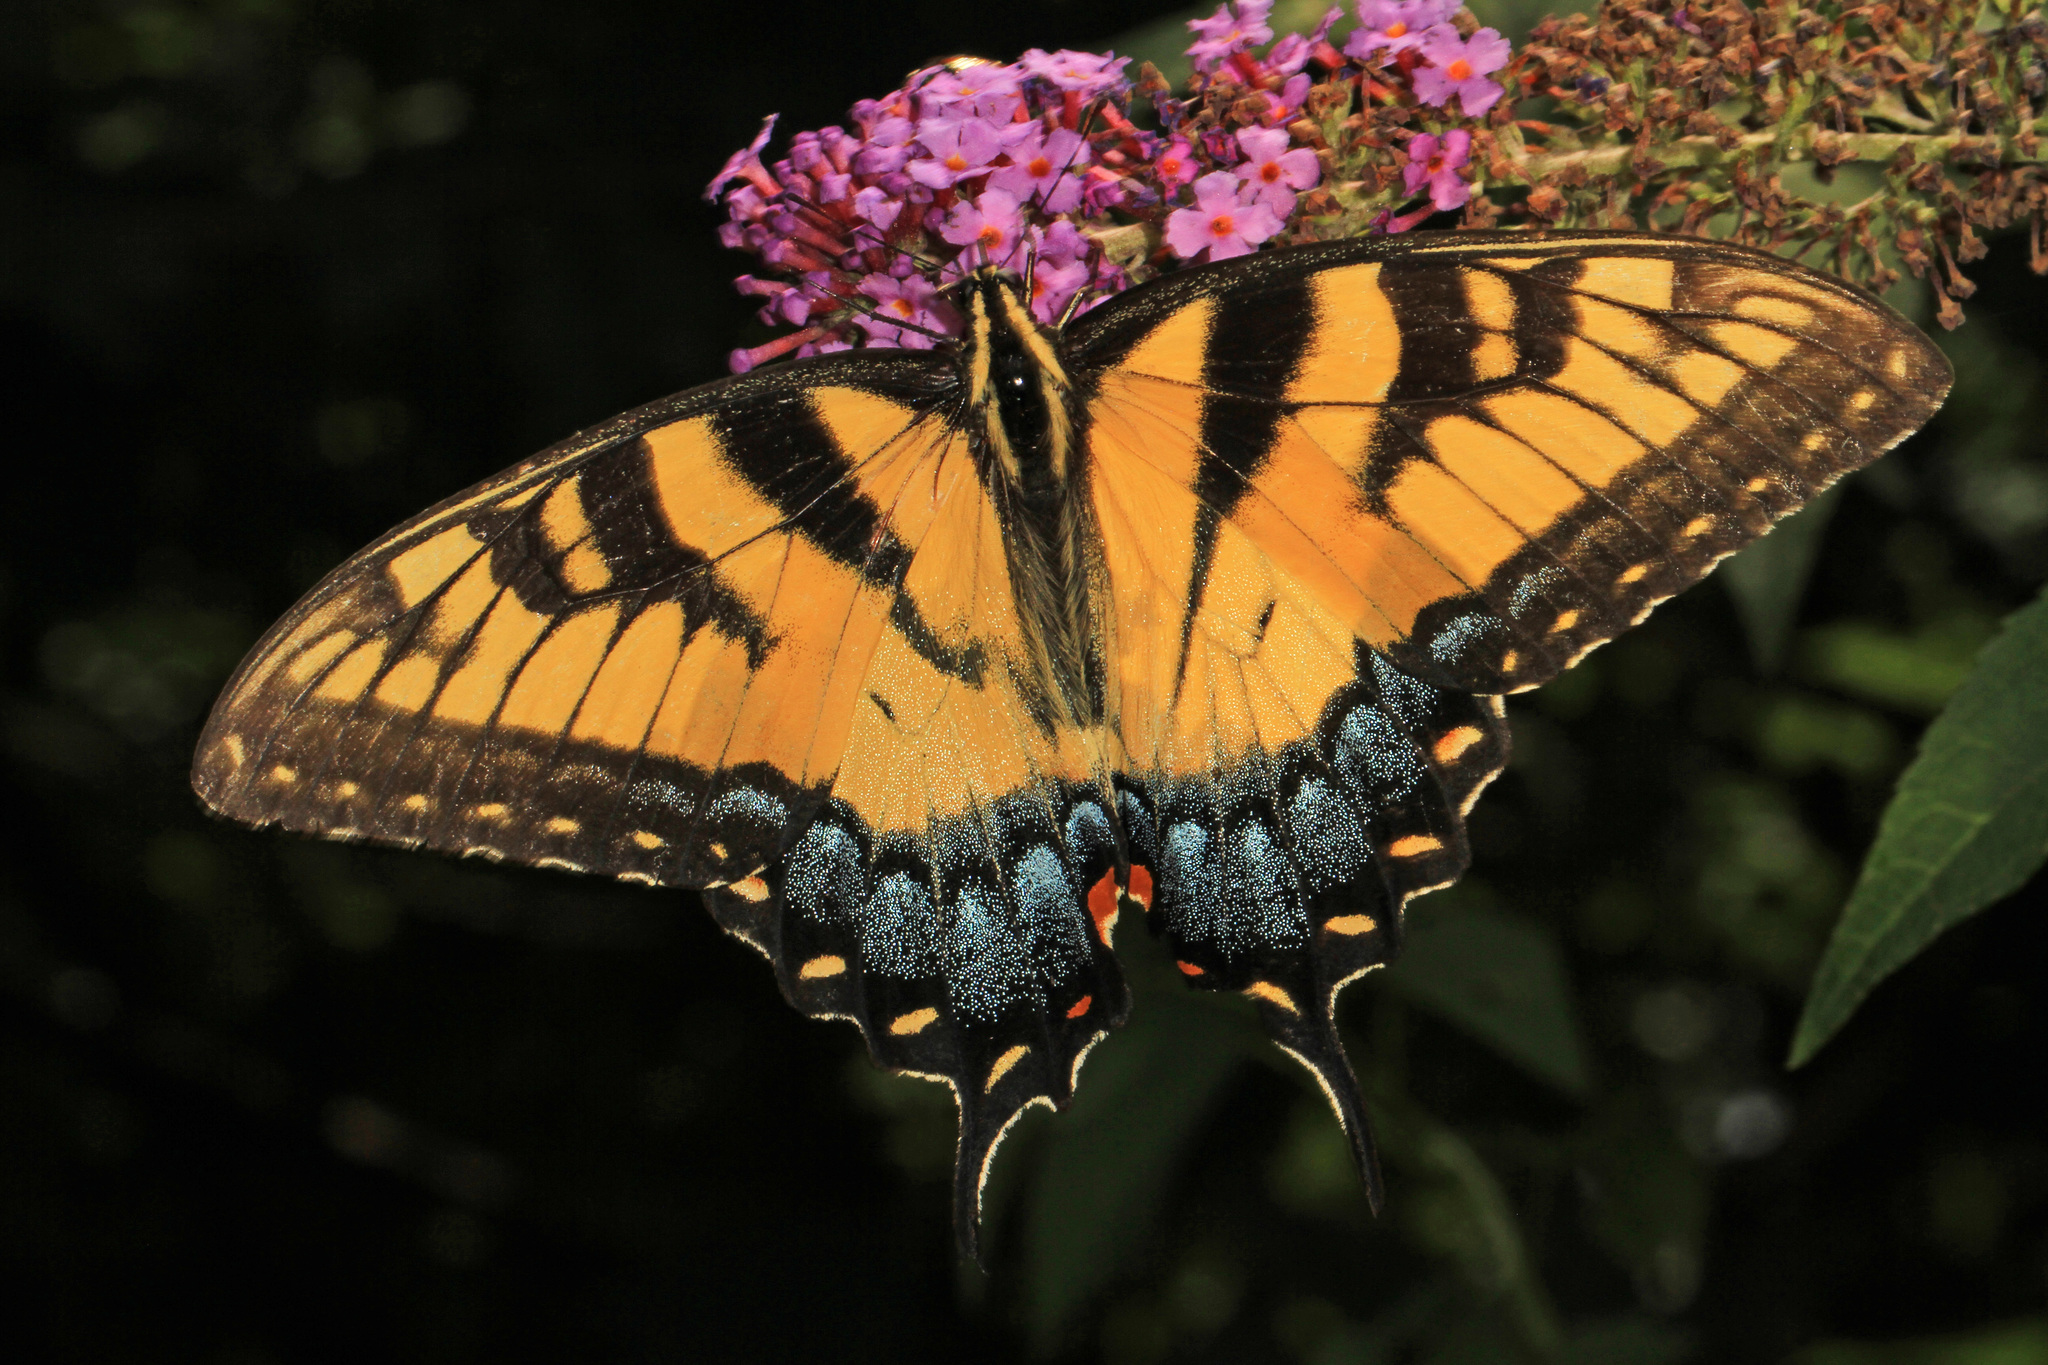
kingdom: Animalia
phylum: Arthropoda
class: Insecta
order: Lepidoptera
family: Papilionidae
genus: Papilio
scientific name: Papilio glaucus
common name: Tiger swallowtail
